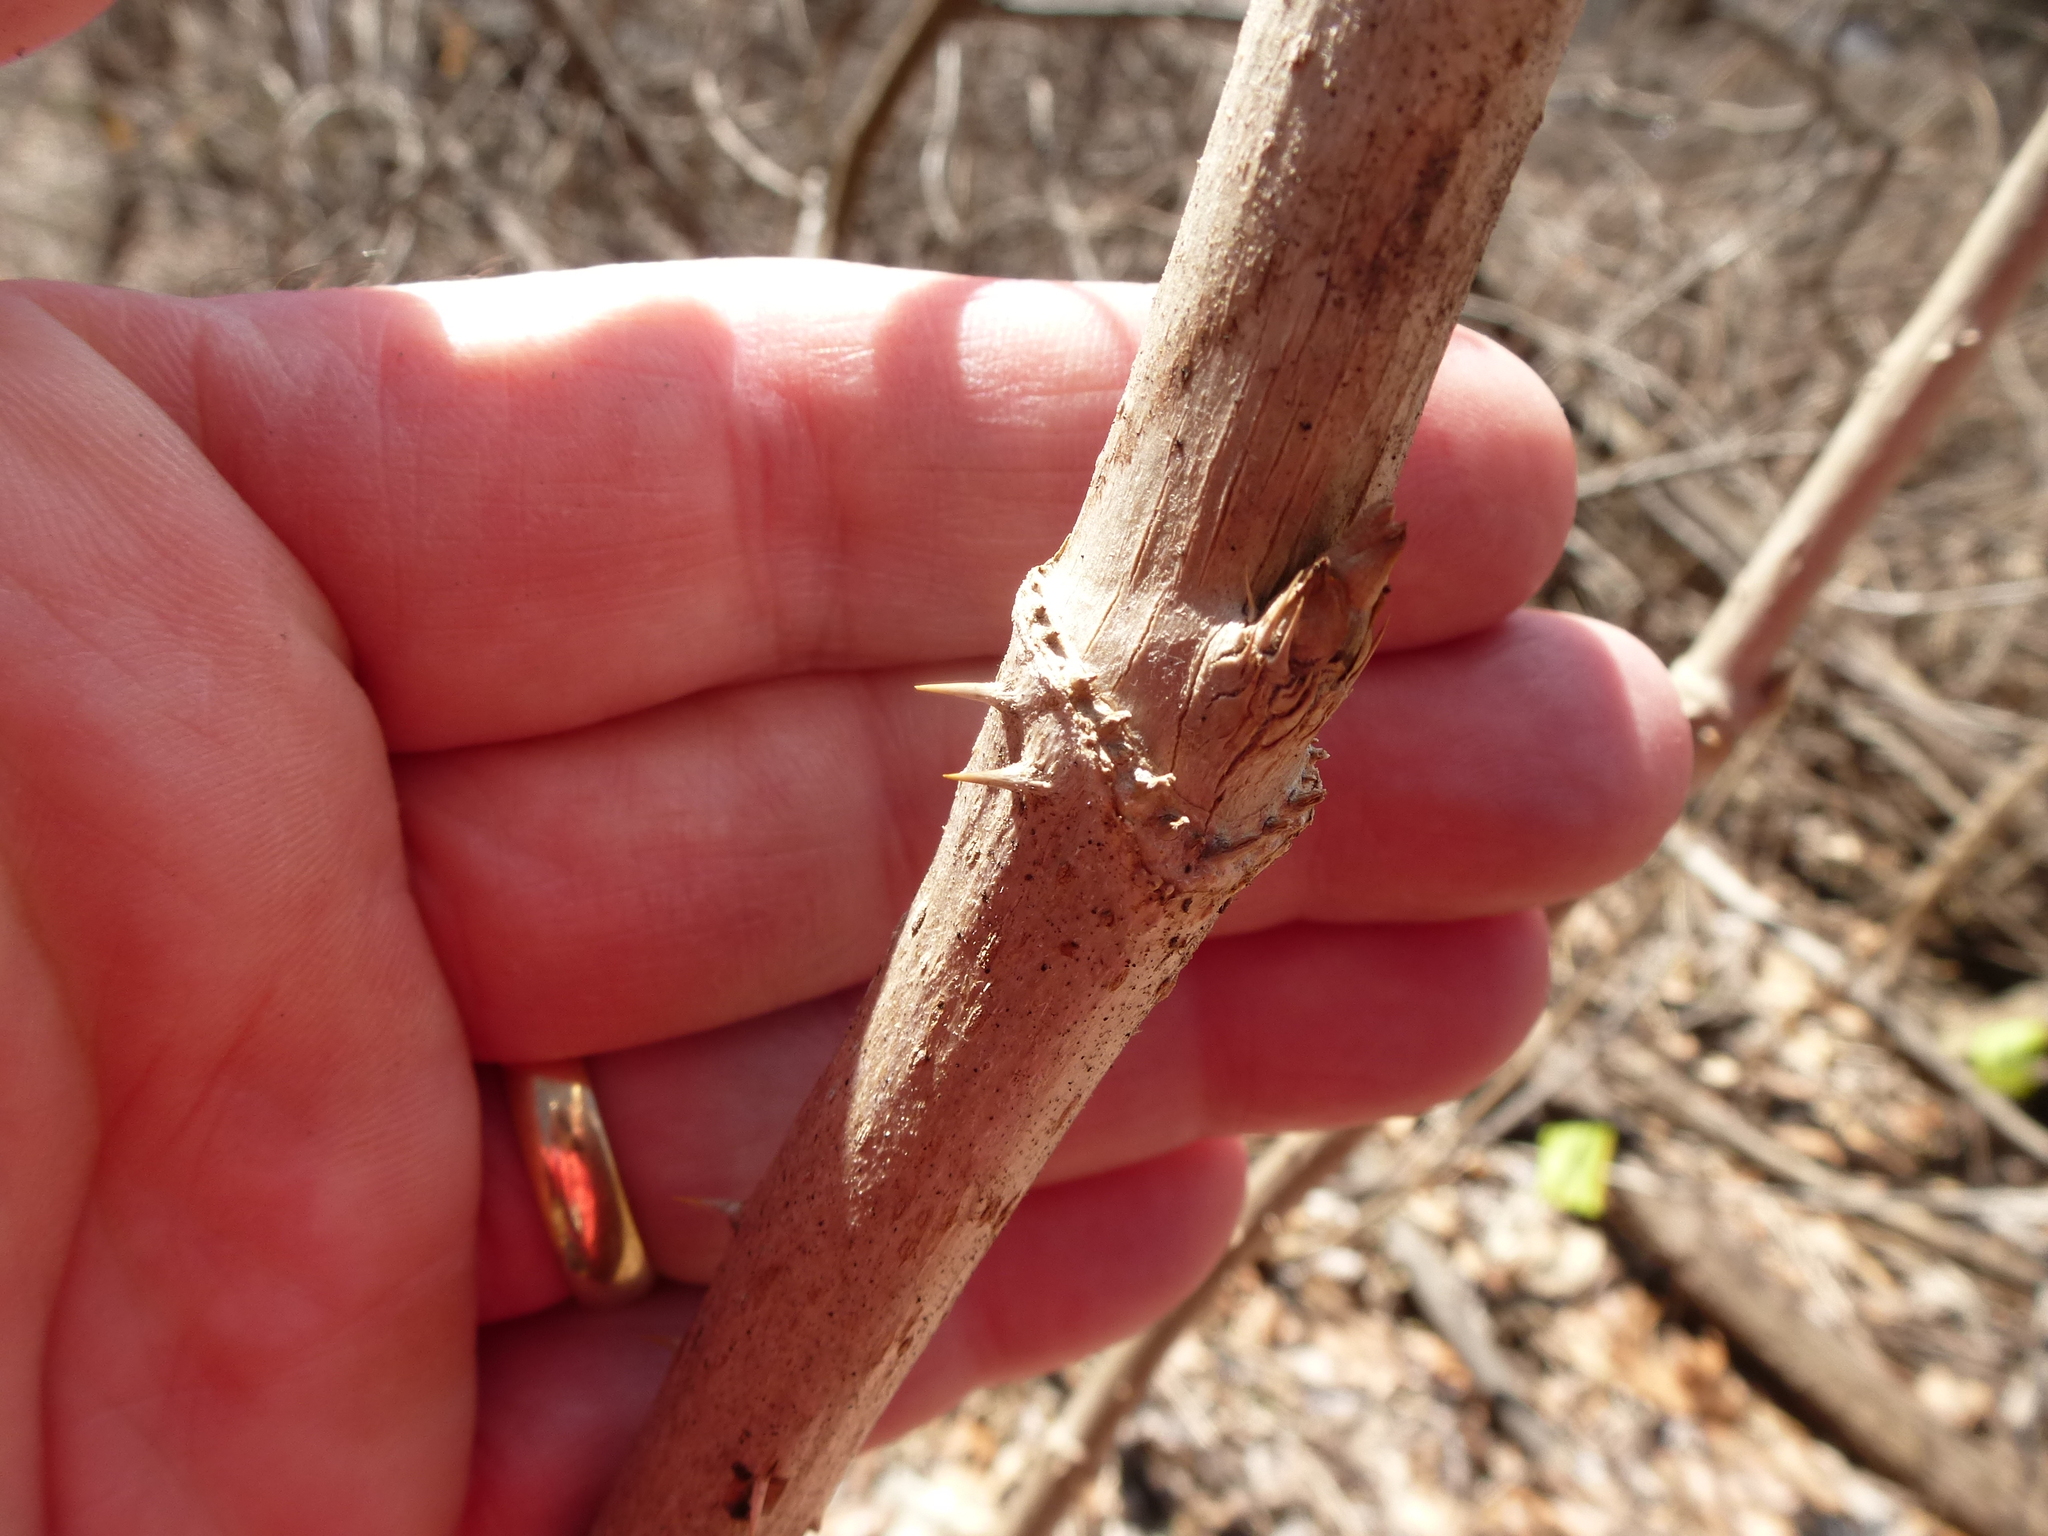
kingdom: Plantae
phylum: Tracheophyta
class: Magnoliopsida
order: Apiales
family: Araliaceae
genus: Aralia
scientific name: Aralia elata
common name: Japanese angelica-tree
